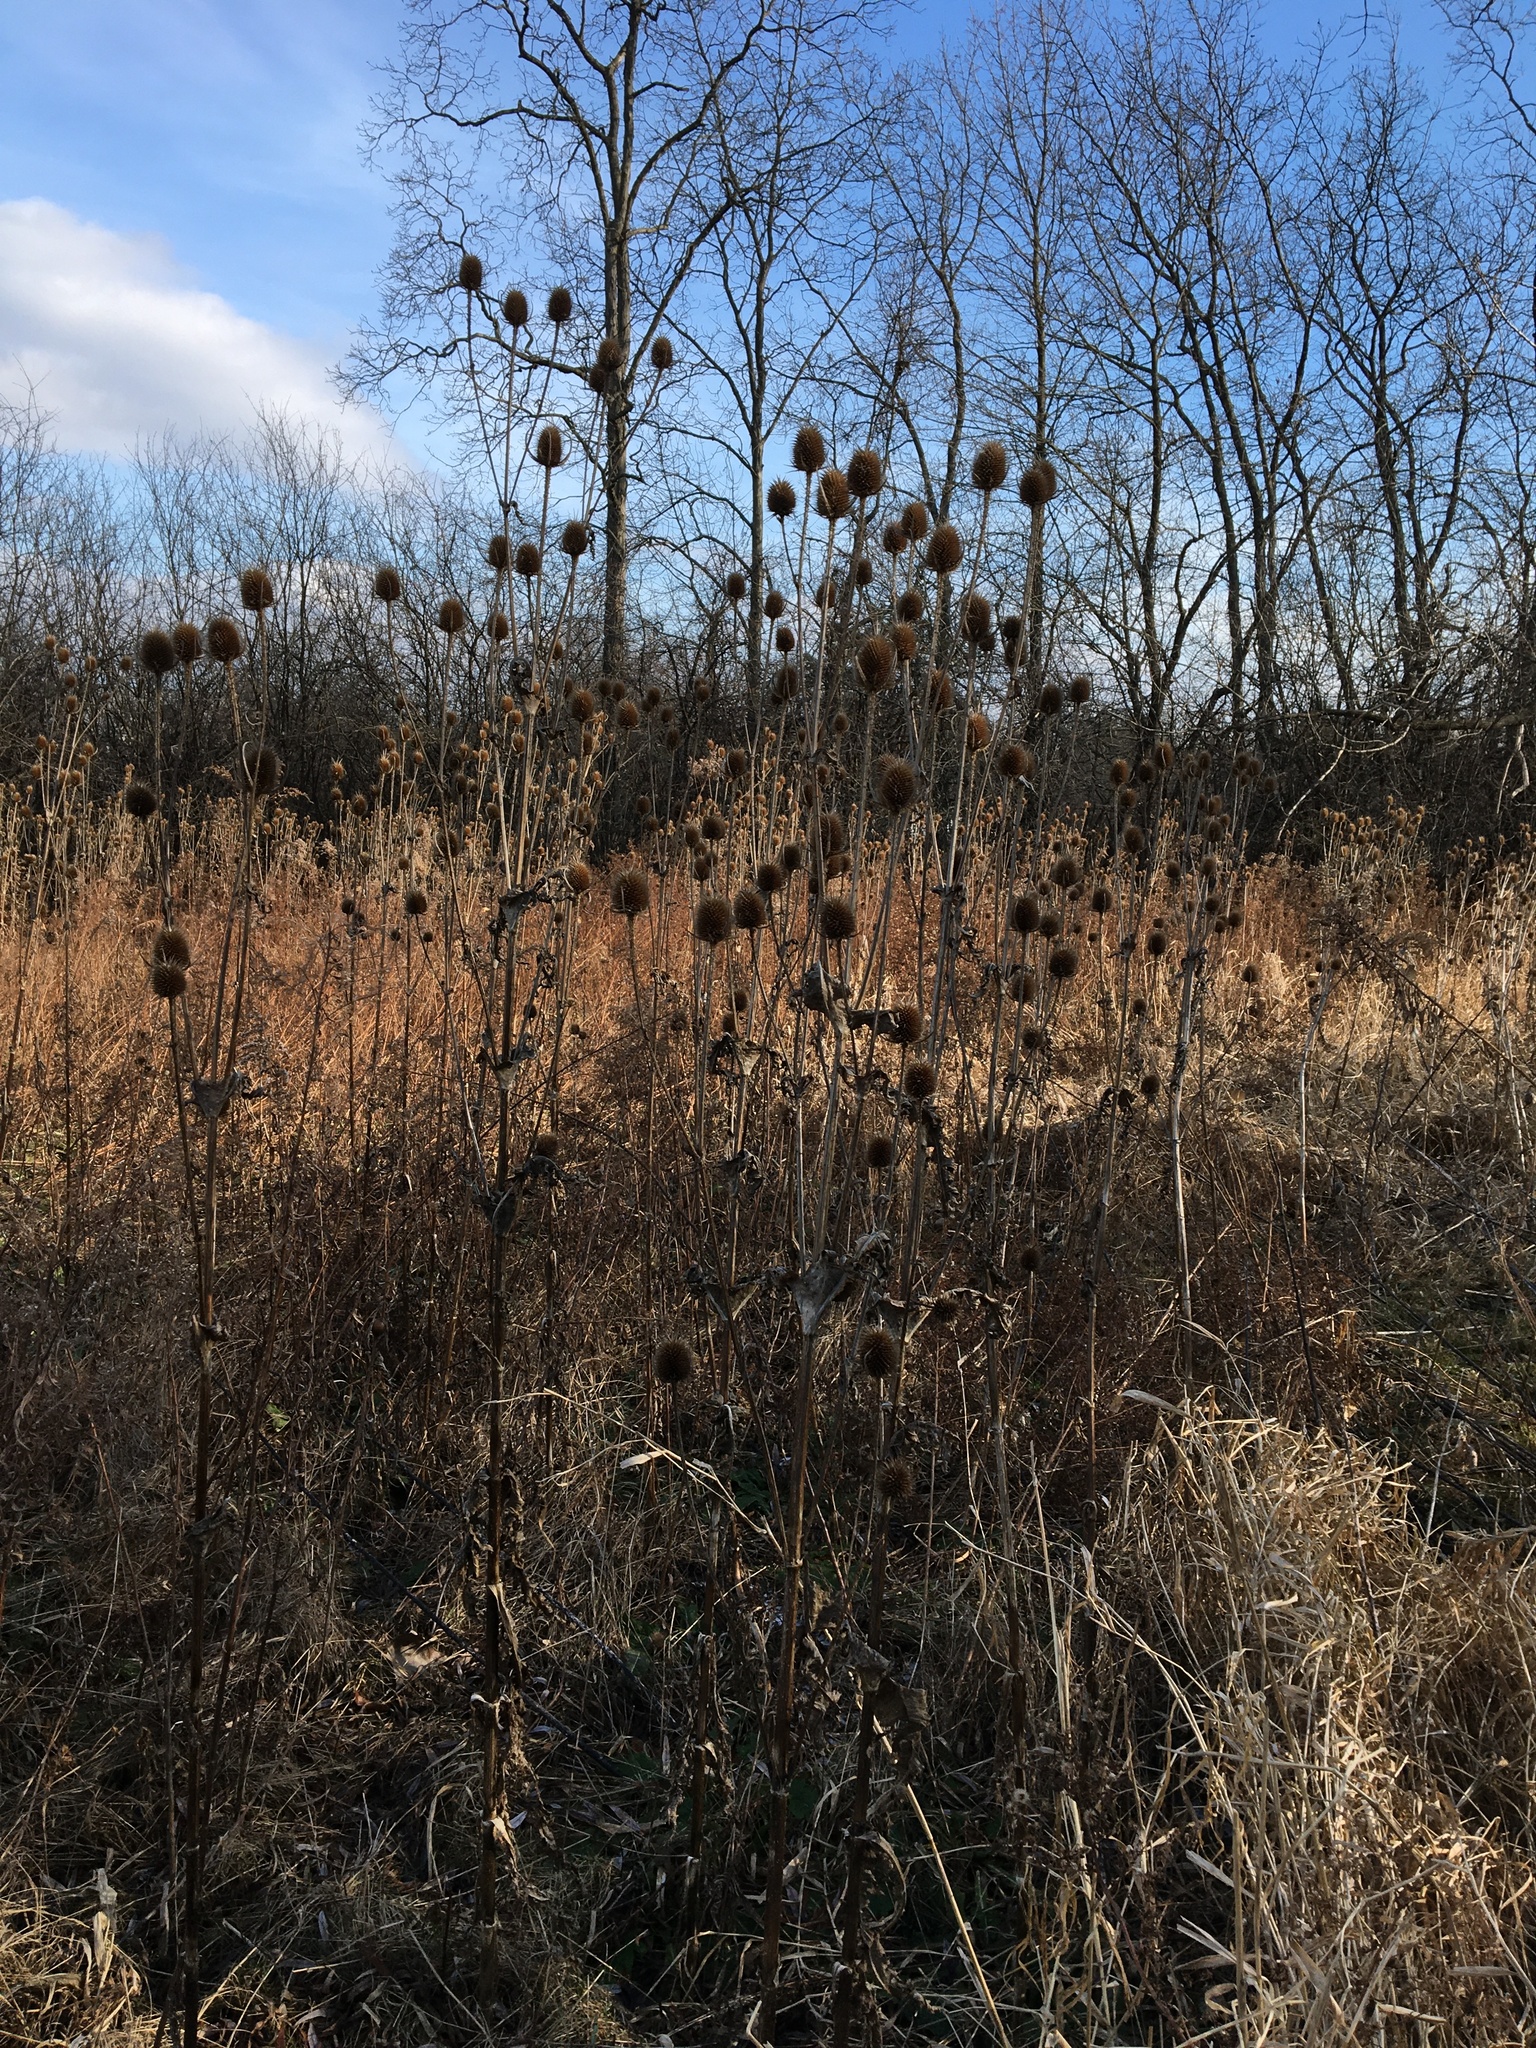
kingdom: Plantae
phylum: Tracheophyta
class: Magnoliopsida
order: Dipsacales
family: Caprifoliaceae
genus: Dipsacus
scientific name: Dipsacus laciniatus
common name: Cut-leaved teasel
